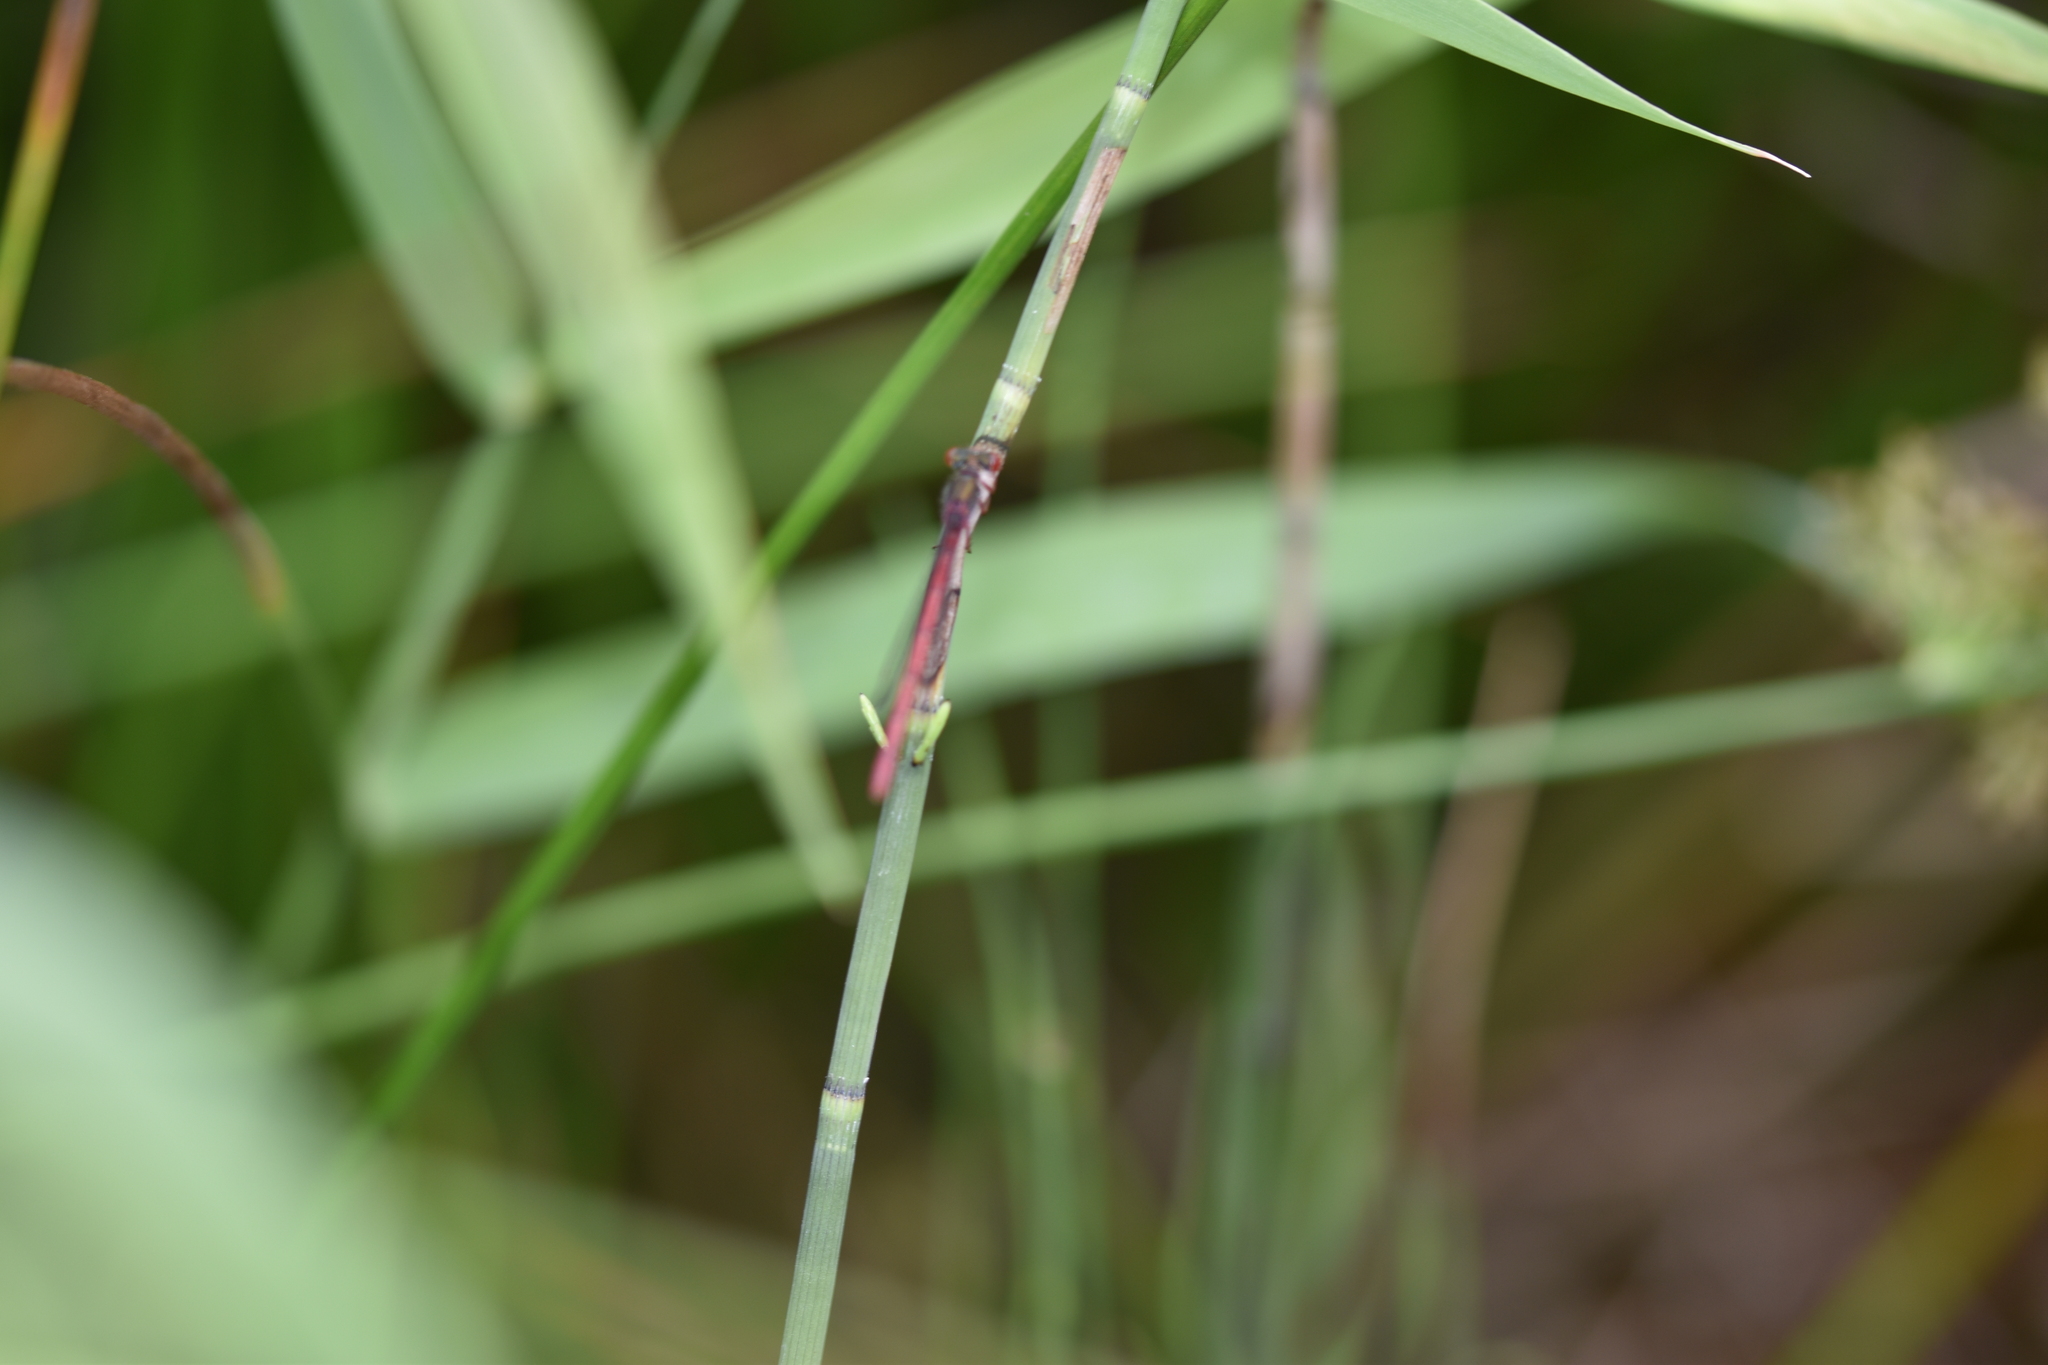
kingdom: Animalia
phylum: Arthropoda
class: Insecta
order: Odonata
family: Coenagrionidae
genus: Ceriagrion
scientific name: Ceriagrion tenellum
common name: Small red damselfly
